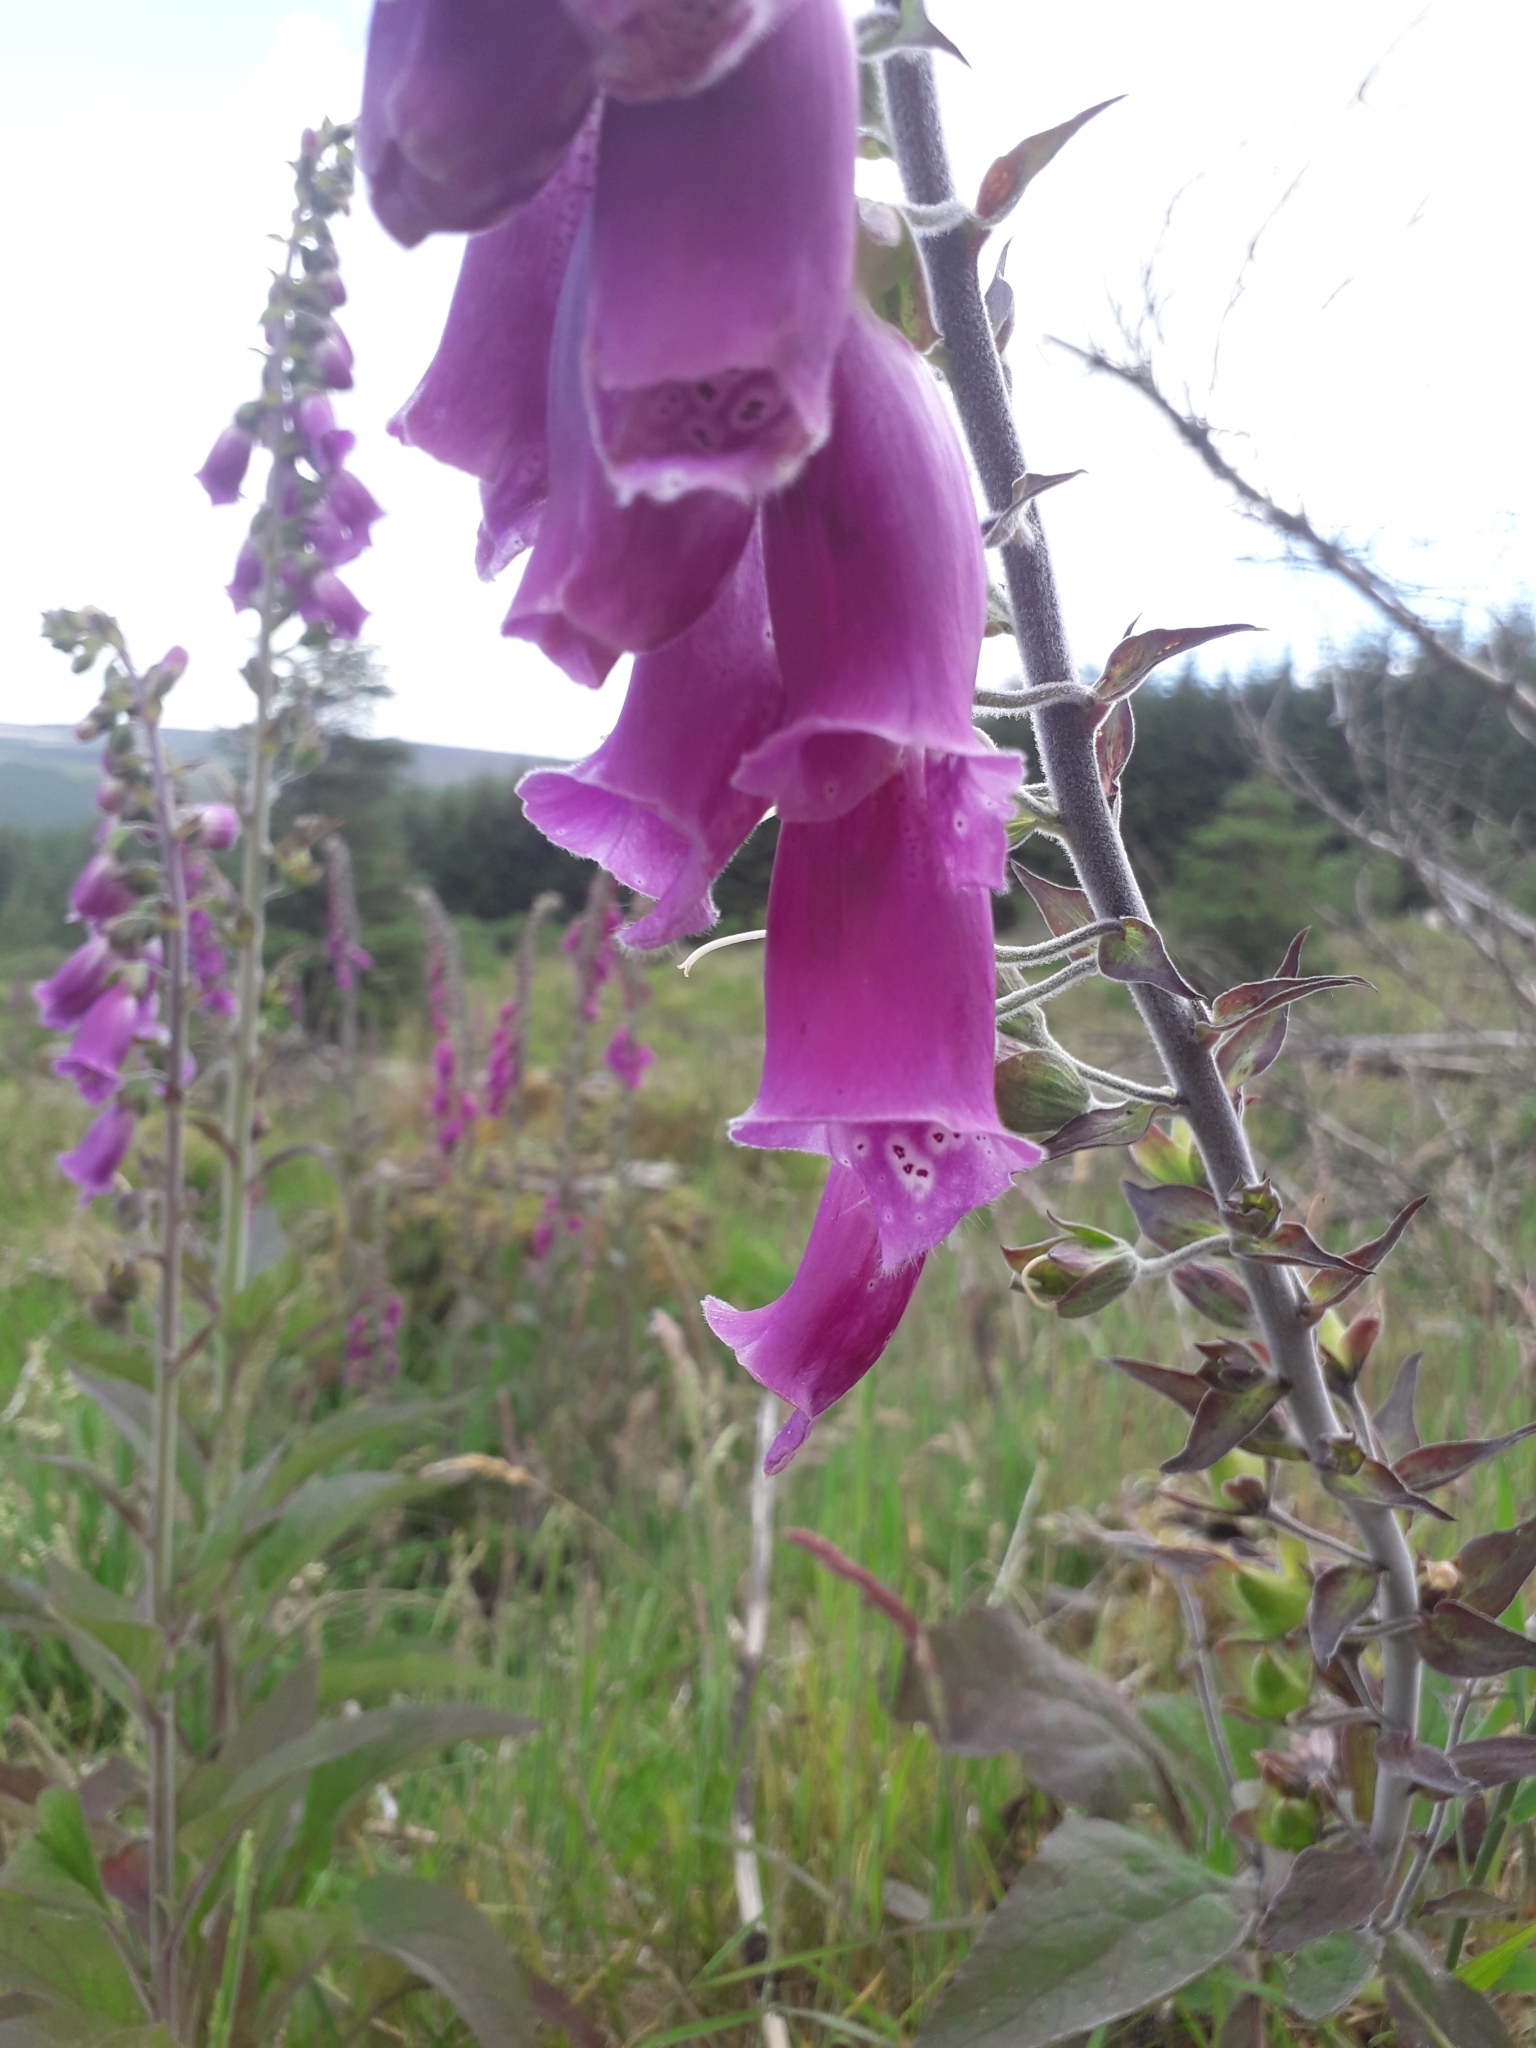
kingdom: Plantae
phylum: Tracheophyta
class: Magnoliopsida
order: Lamiales
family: Plantaginaceae
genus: Digitalis
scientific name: Digitalis purpurea
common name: Foxglove
